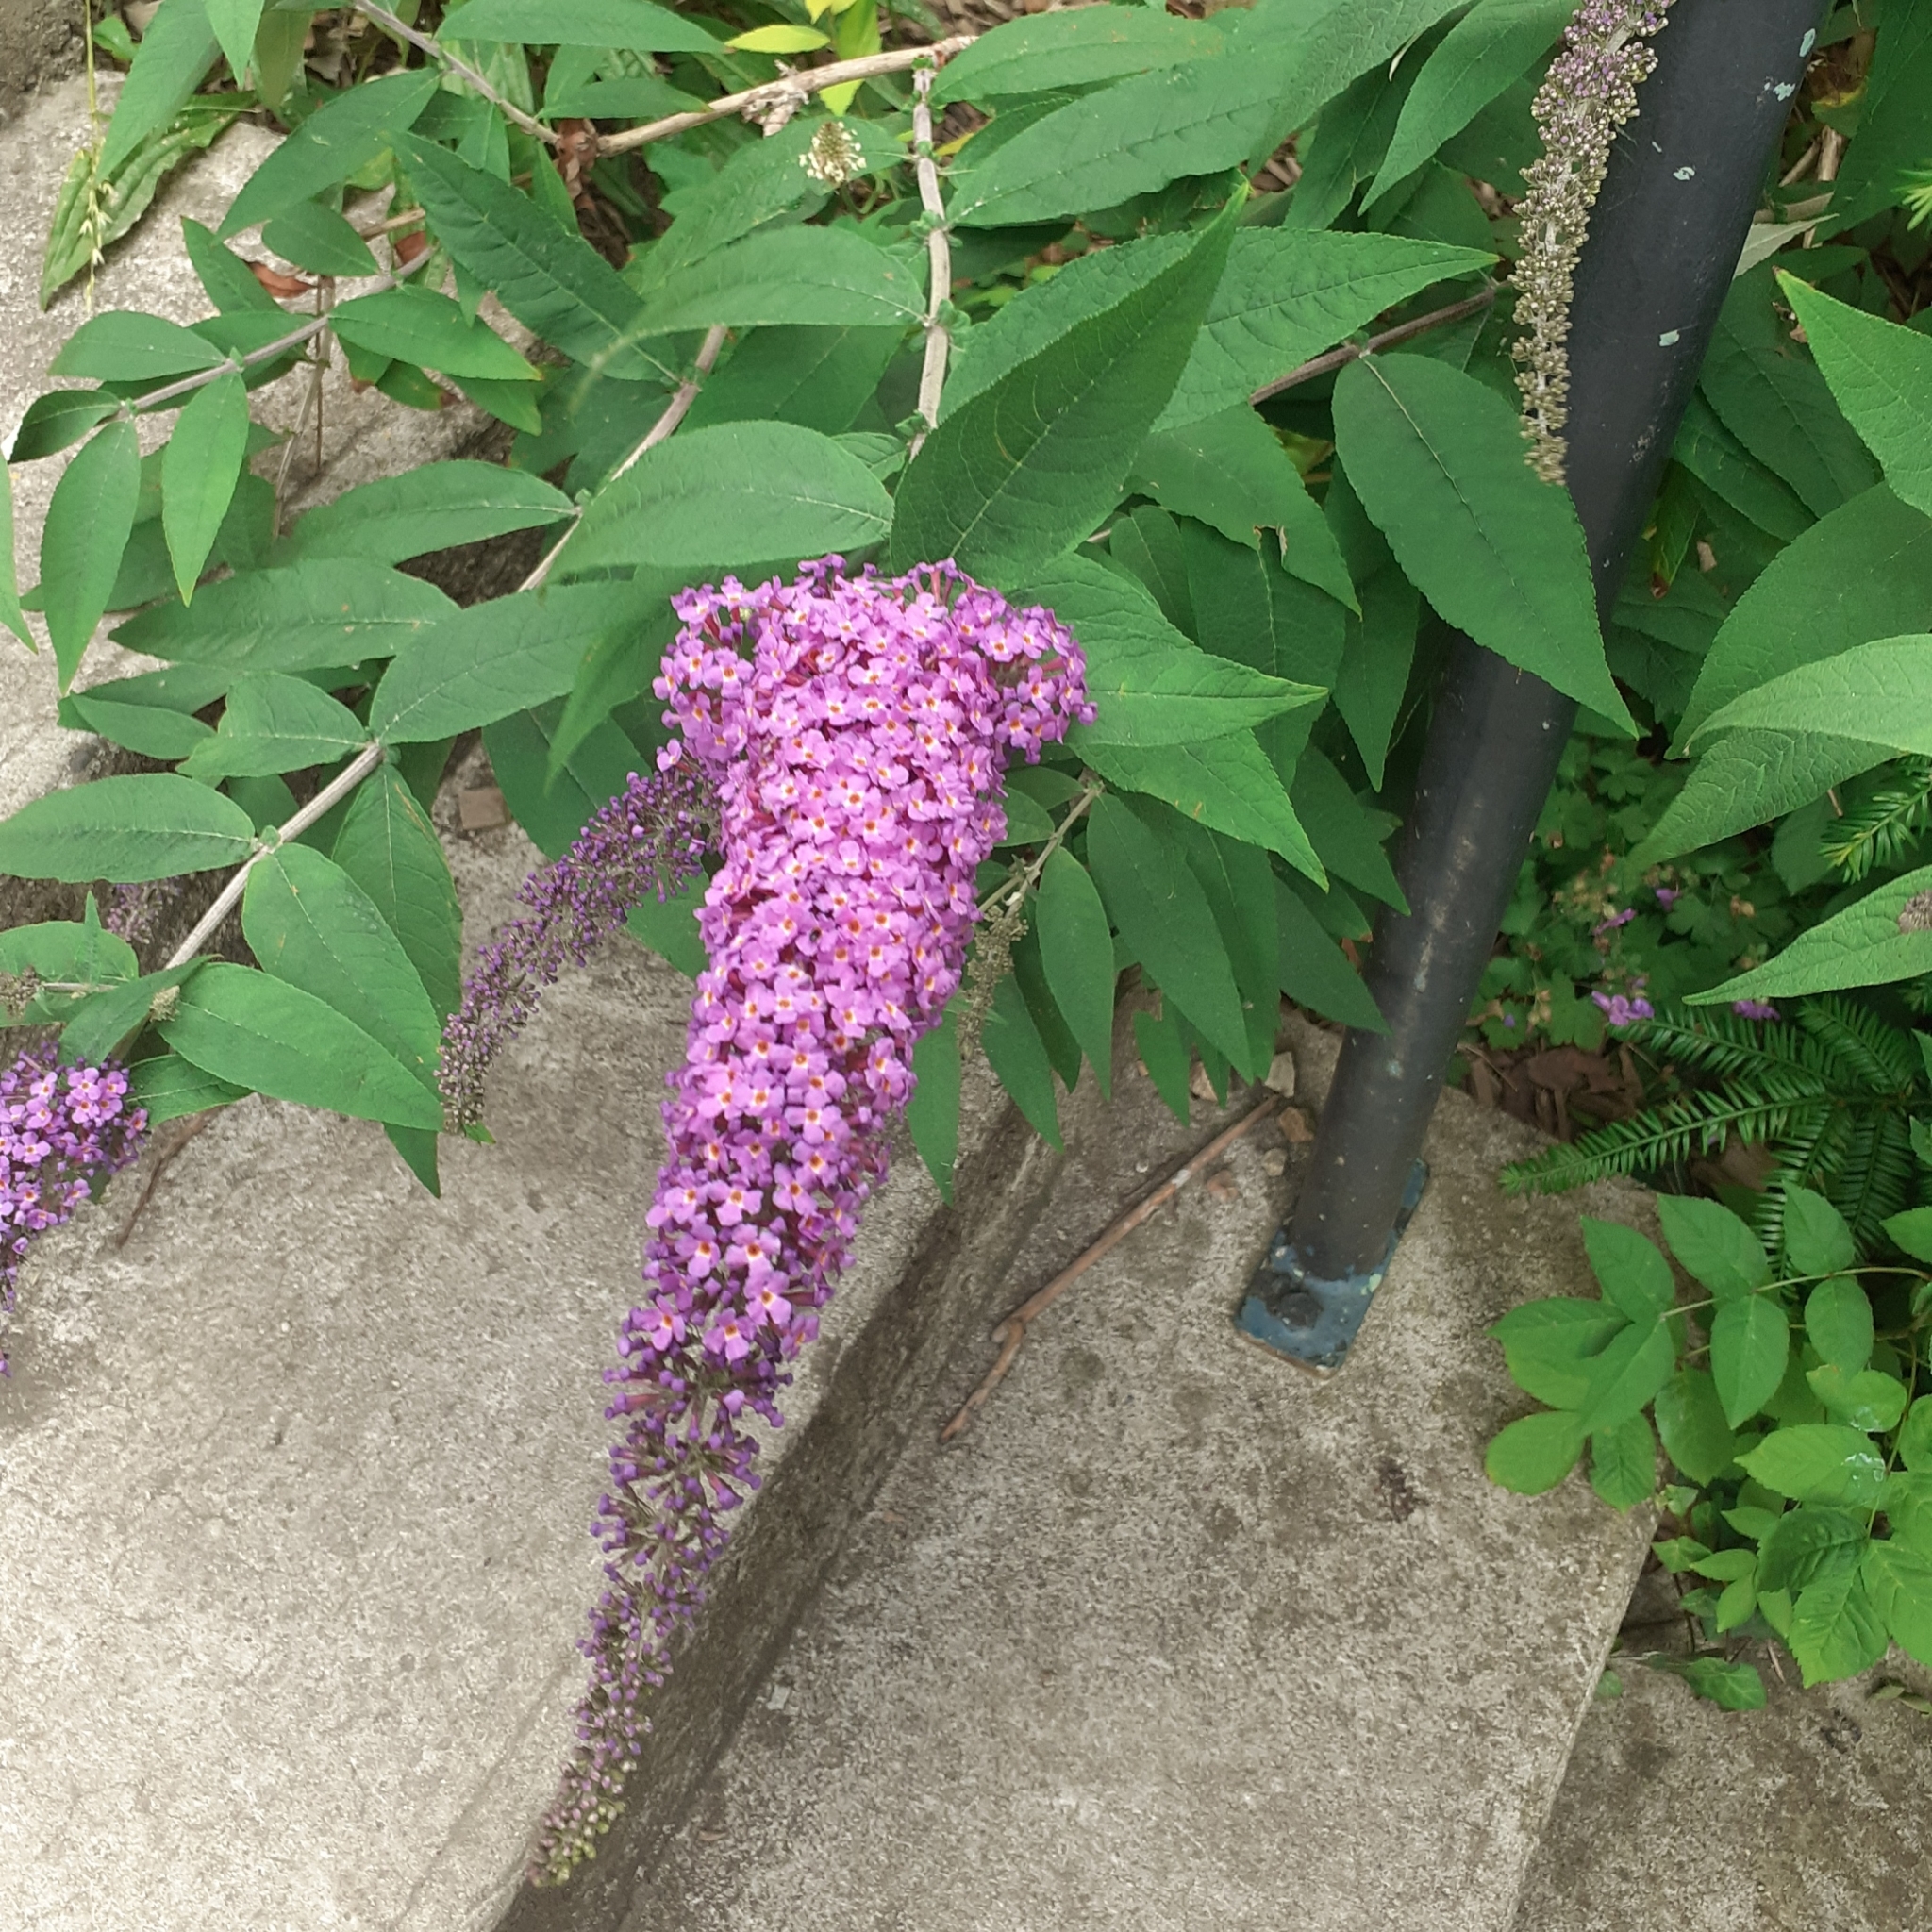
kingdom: Plantae
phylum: Tracheophyta
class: Magnoliopsida
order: Lamiales
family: Scrophulariaceae
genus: Buddleja
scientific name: Buddleja davidii
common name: Butterfly-bush
